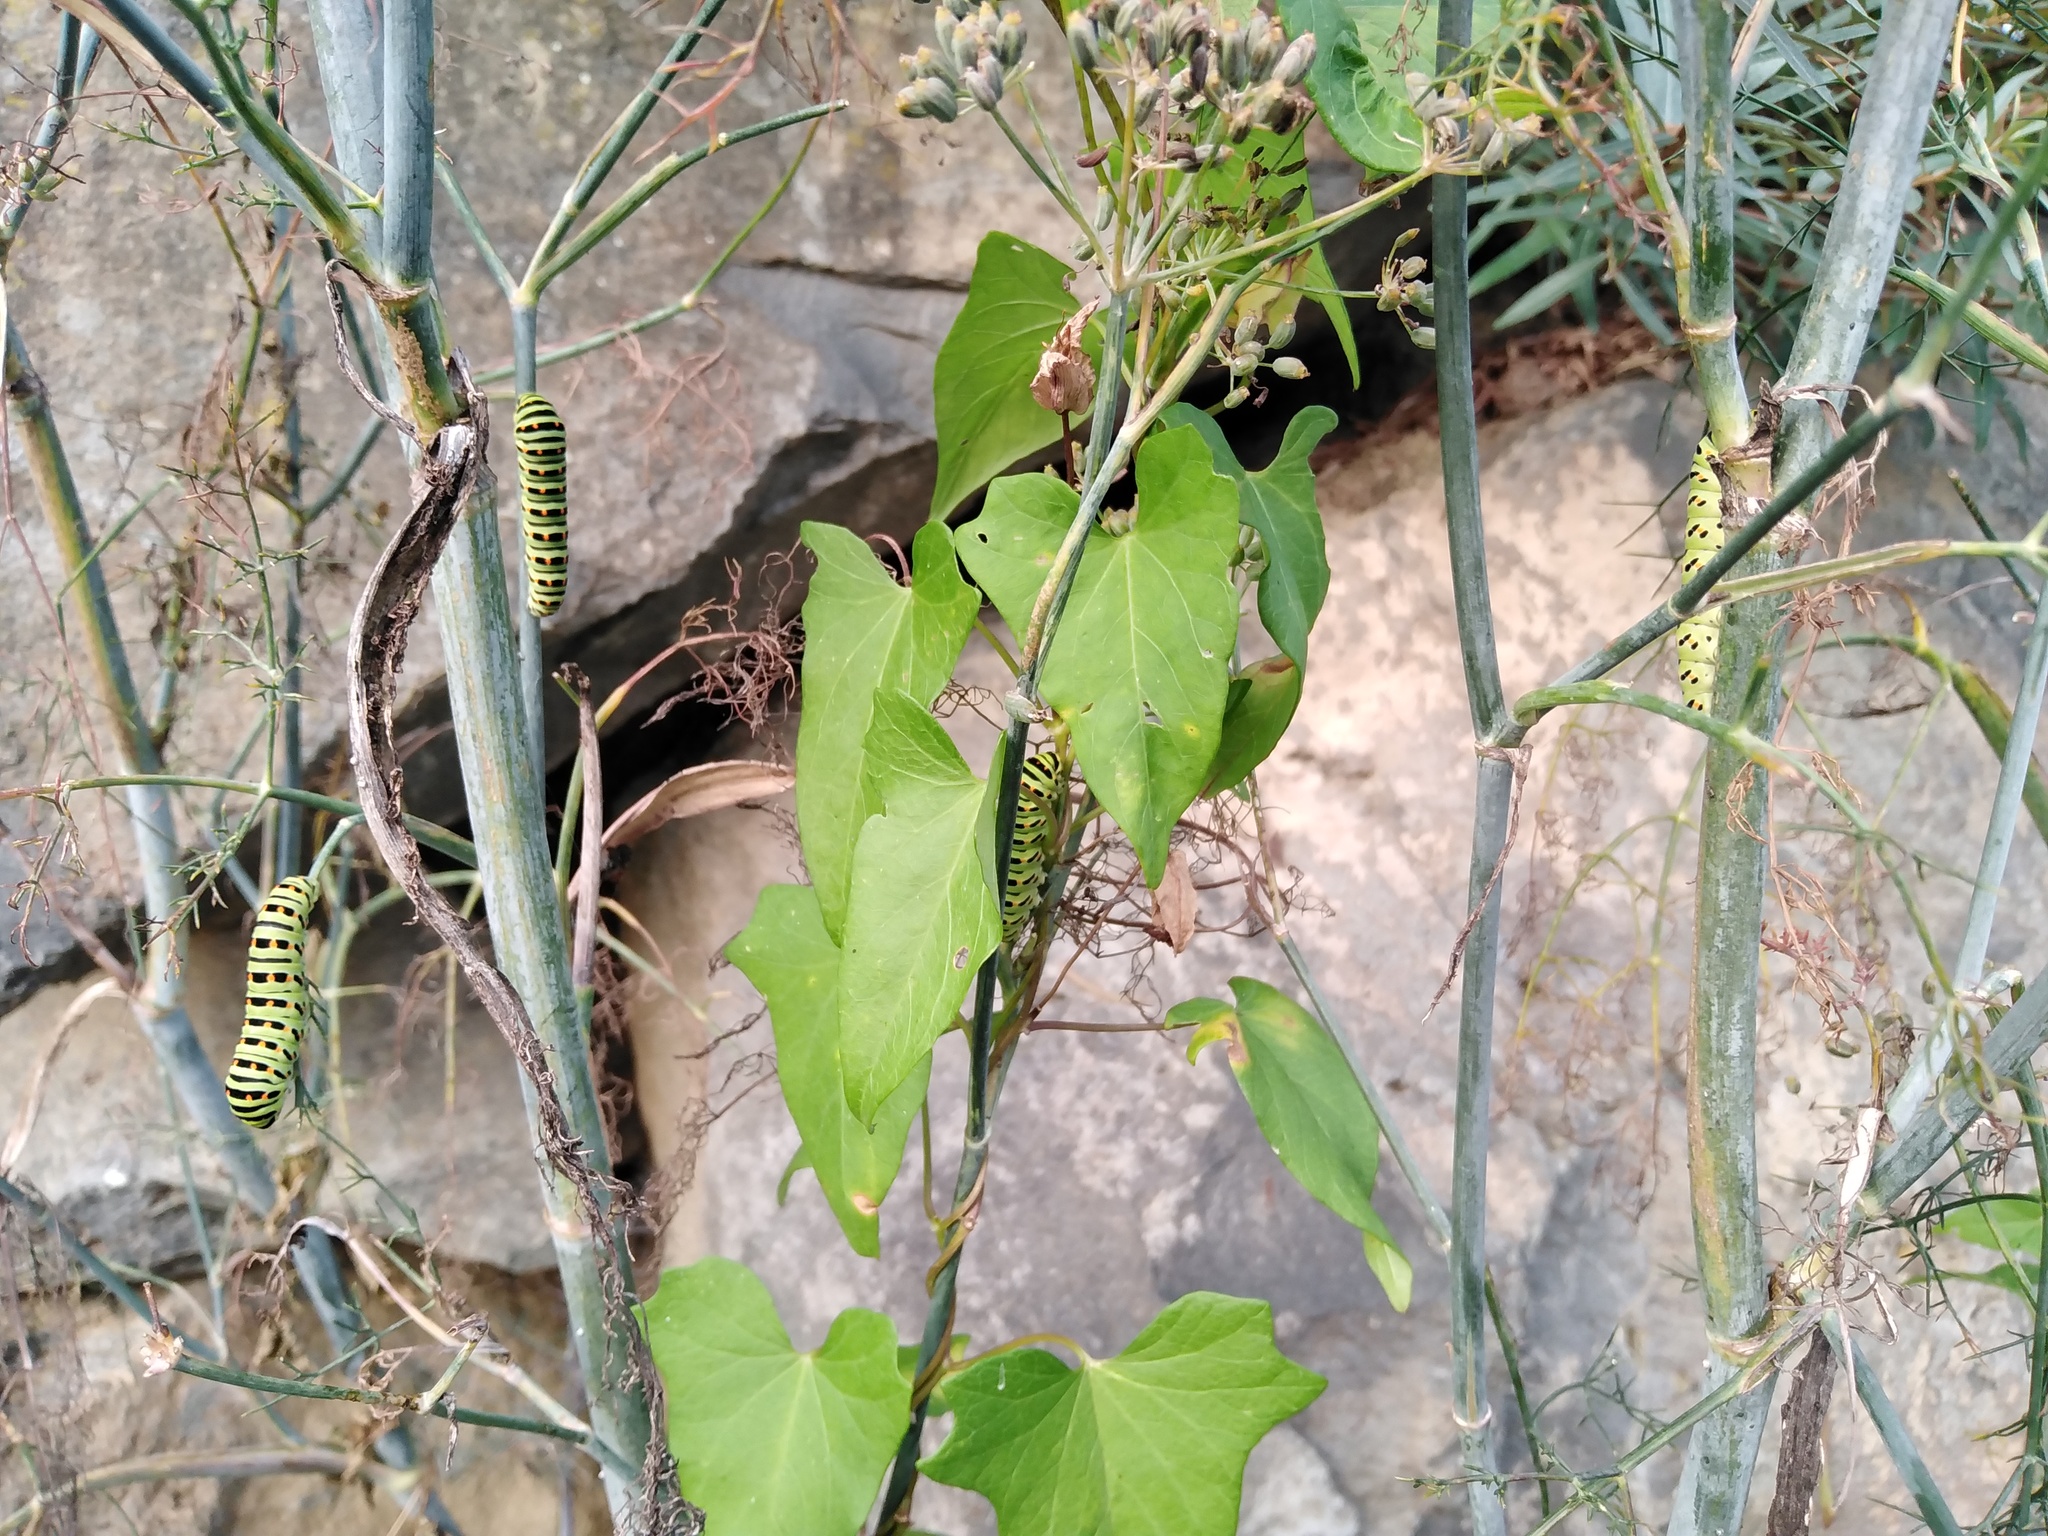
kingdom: Animalia
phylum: Arthropoda
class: Insecta
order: Lepidoptera
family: Papilionidae
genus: Papilio
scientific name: Papilio machaon
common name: Swallowtail
